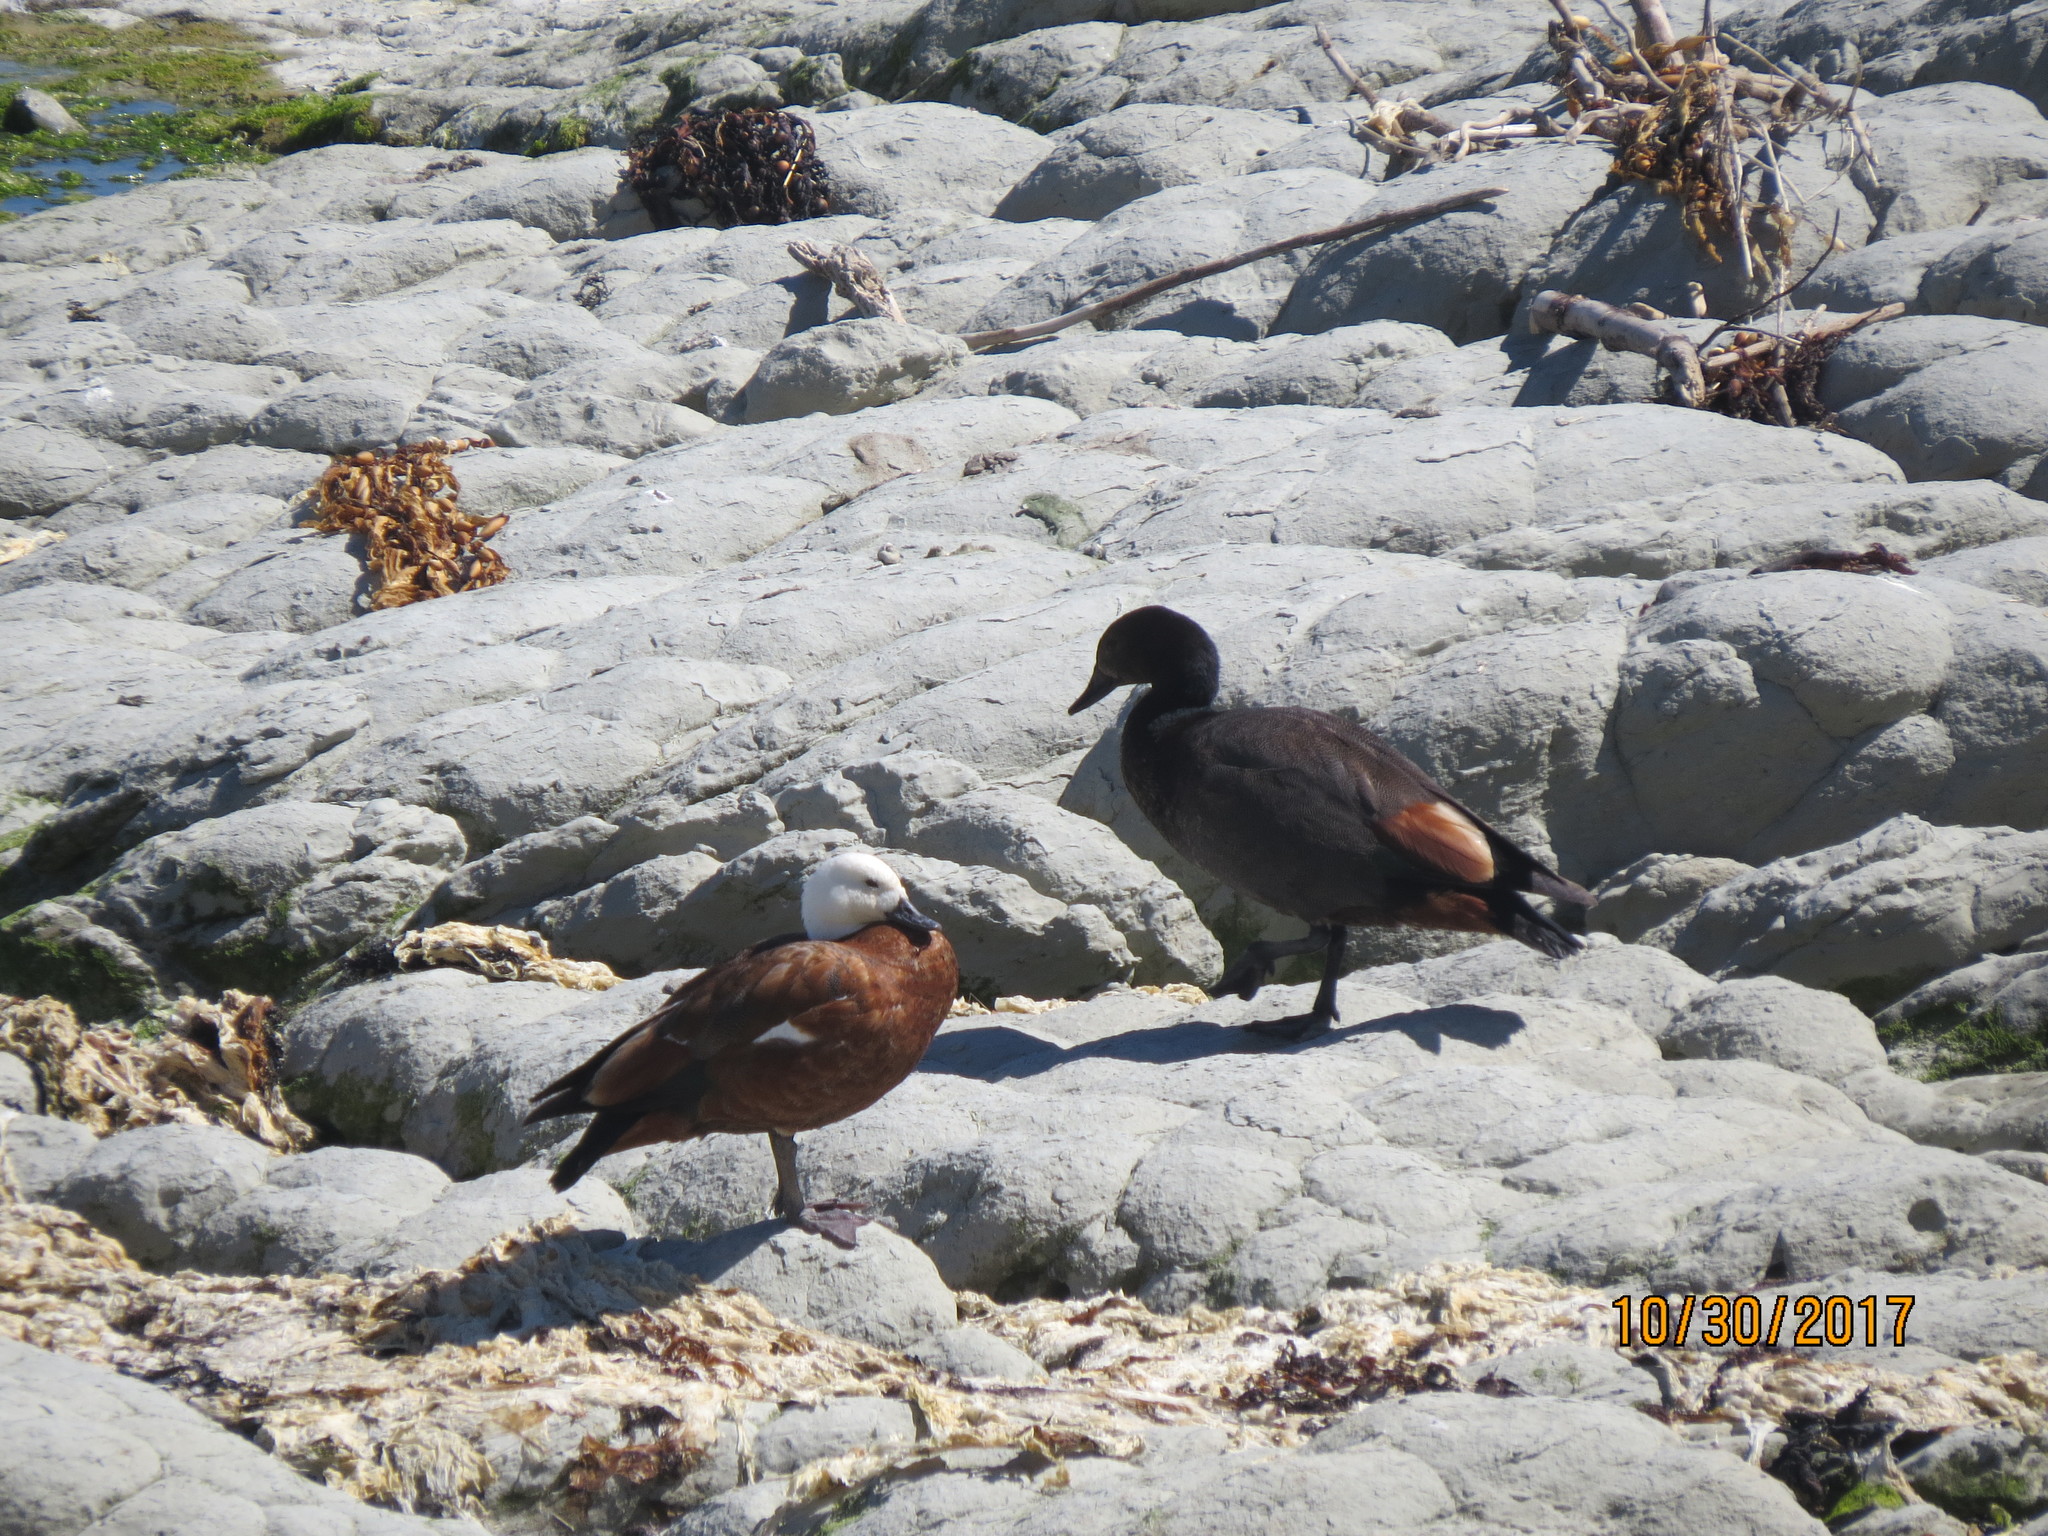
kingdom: Animalia
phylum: Chordata
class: Aves
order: Anseriformes
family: Anatidae
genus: Tadorna
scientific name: Tadorna variegata
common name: Paradise shelduck
